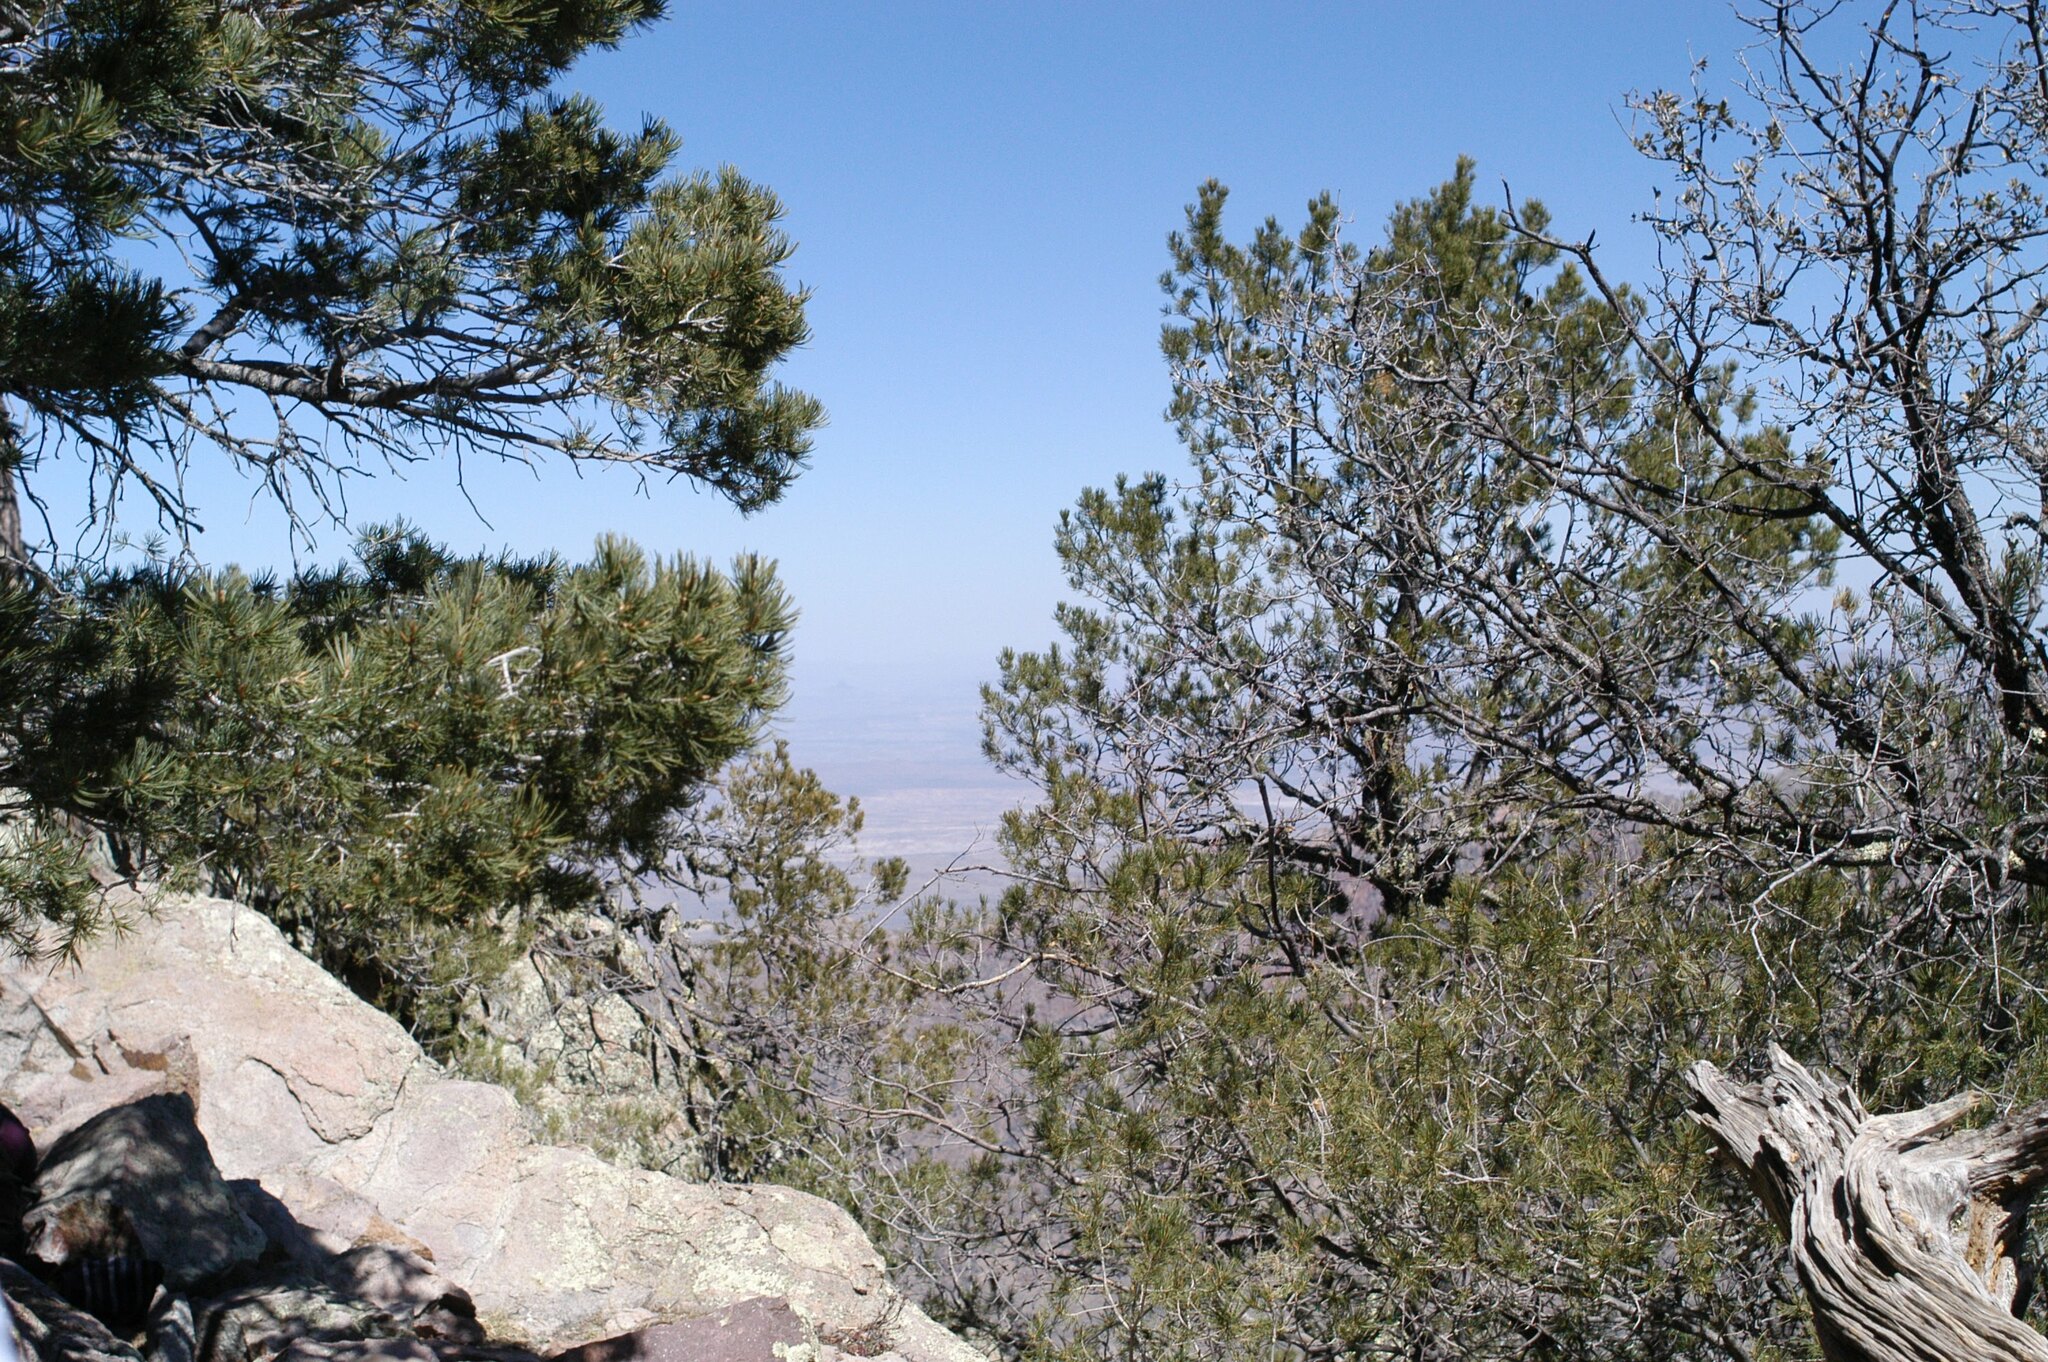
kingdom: Plantae
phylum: Tracheophyta
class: Pinopsida
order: Pinales
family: Pinaceae
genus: Pinus
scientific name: Pinus cembroides
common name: Mexican nut pine
